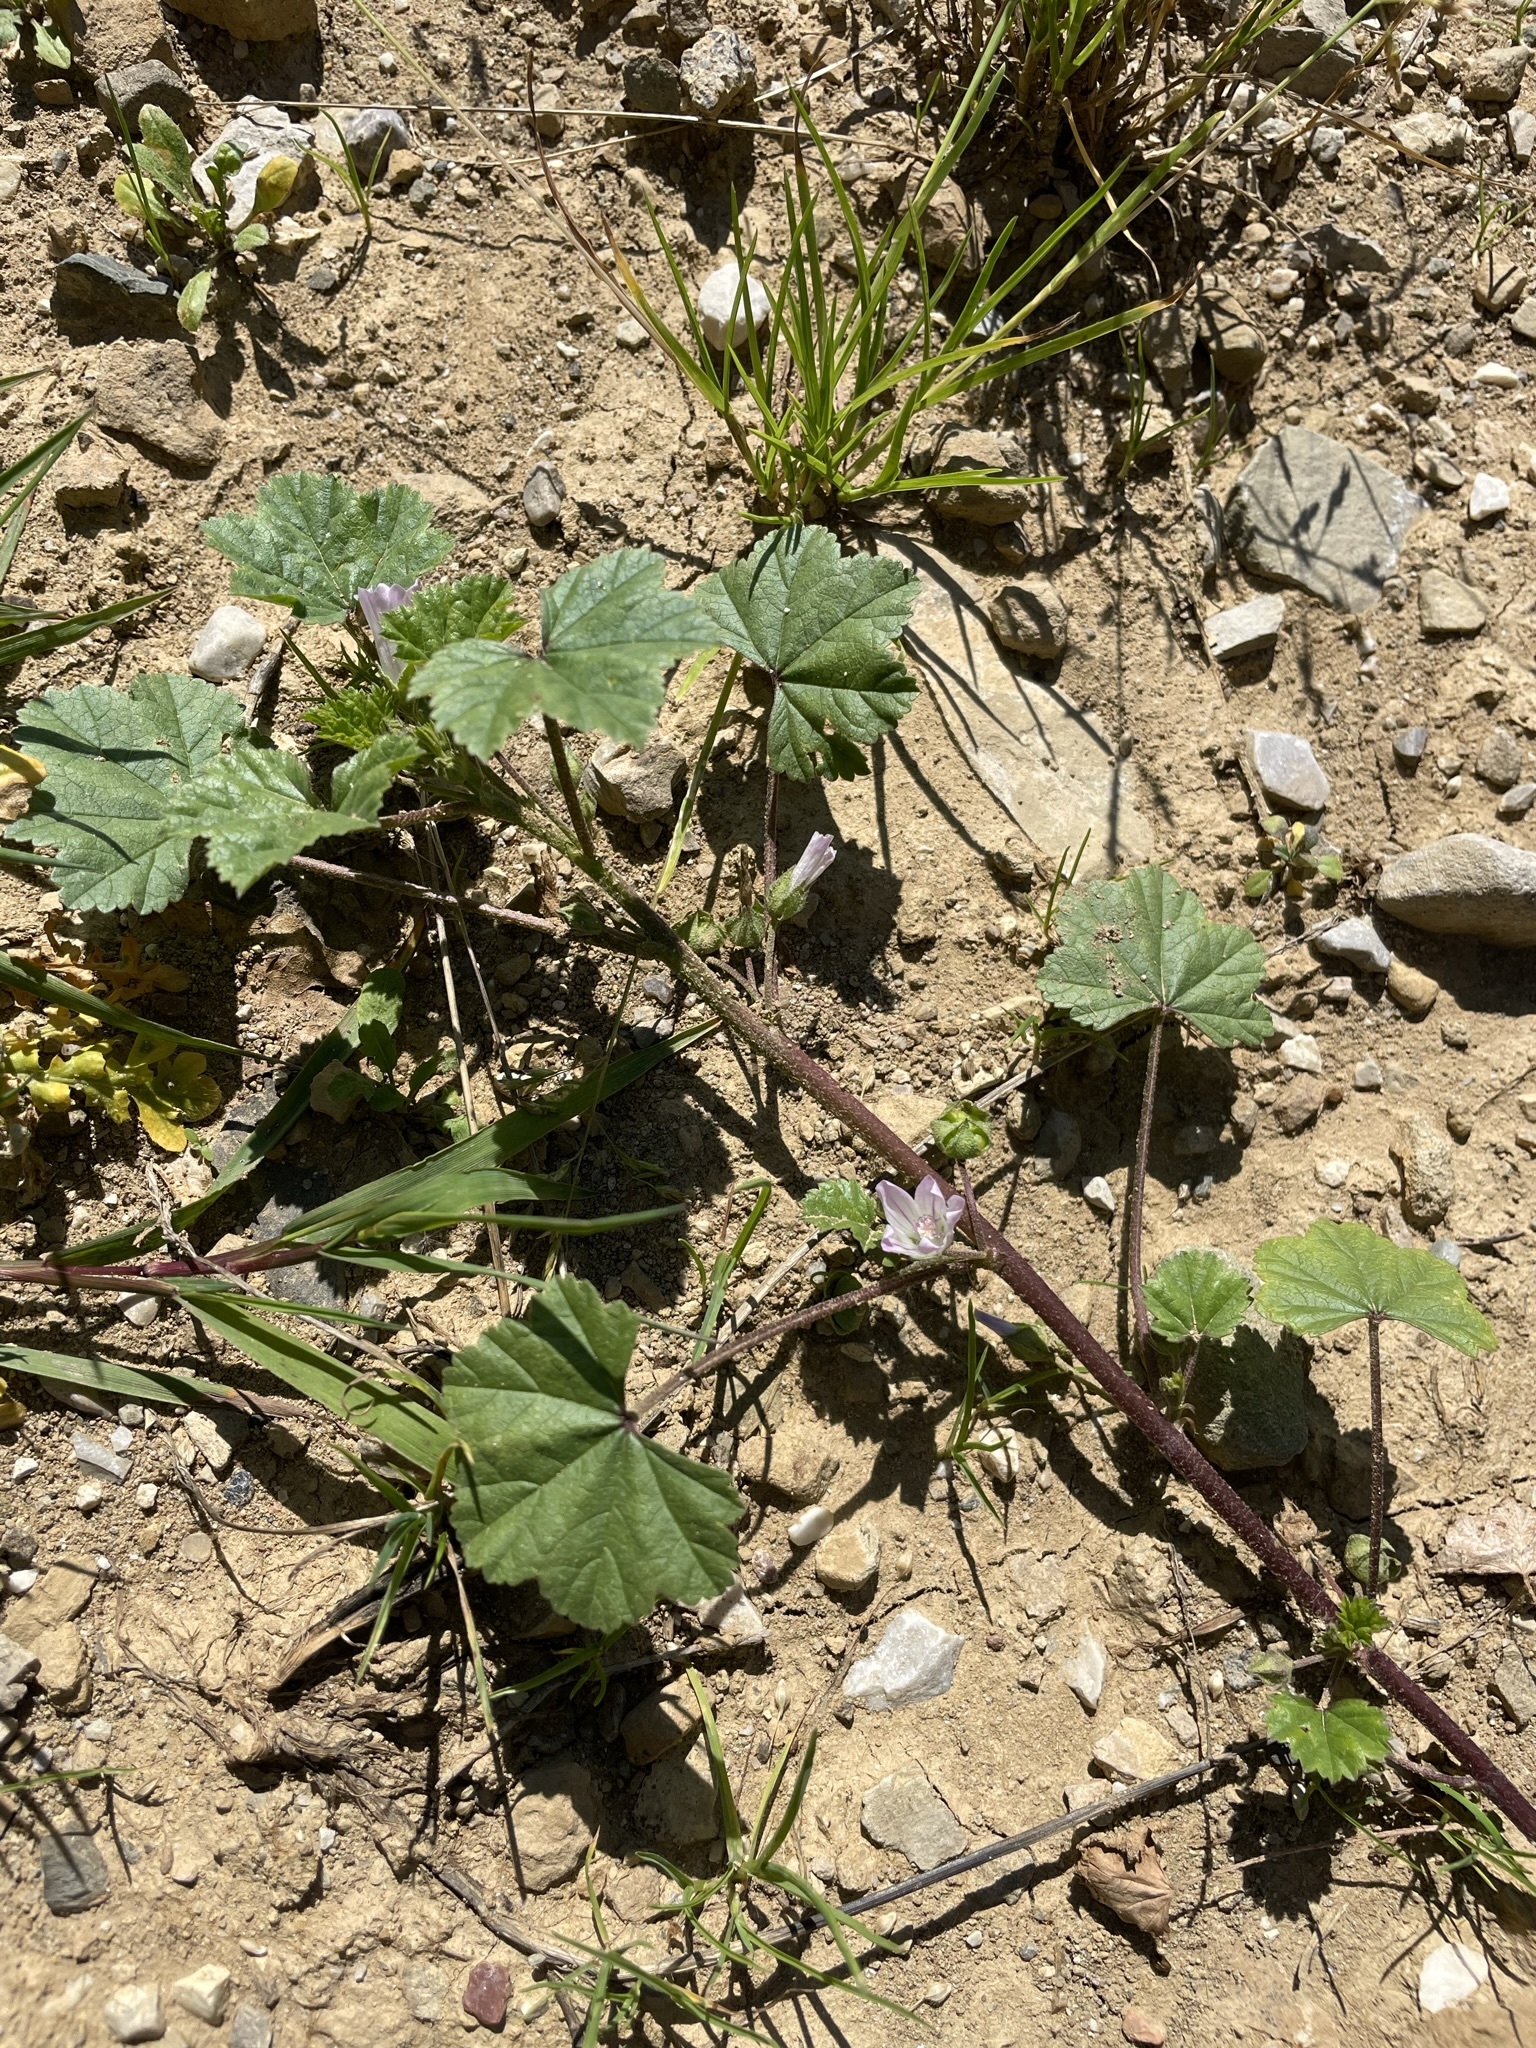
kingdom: Plantae
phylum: Tracheophyta
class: Magnoliopsida
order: Malvales
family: Malvaceae
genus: Malva
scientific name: Malva neglecta
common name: Common mallow
